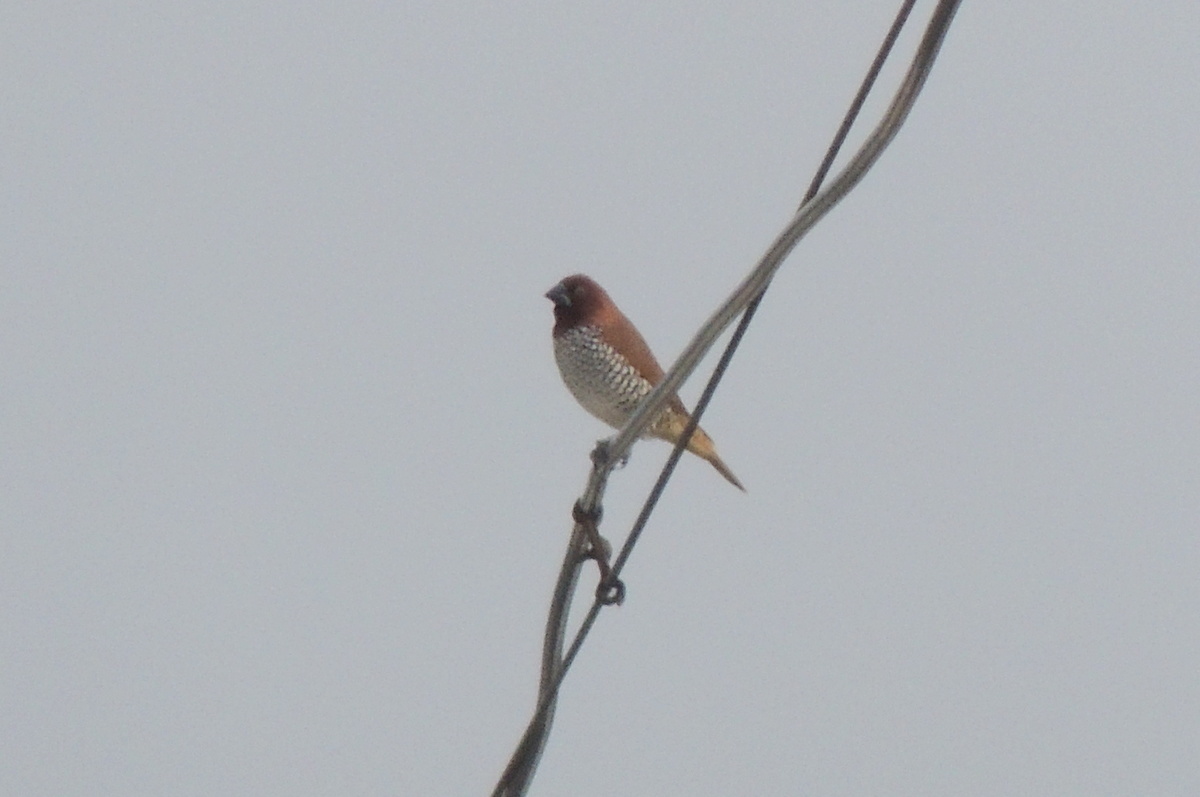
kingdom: Animalia
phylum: Chordata
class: Aves
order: Passeriformes
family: Estrildidae
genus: Lonchura
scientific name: Lonchura punctulata
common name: Scaly-breasted munia
